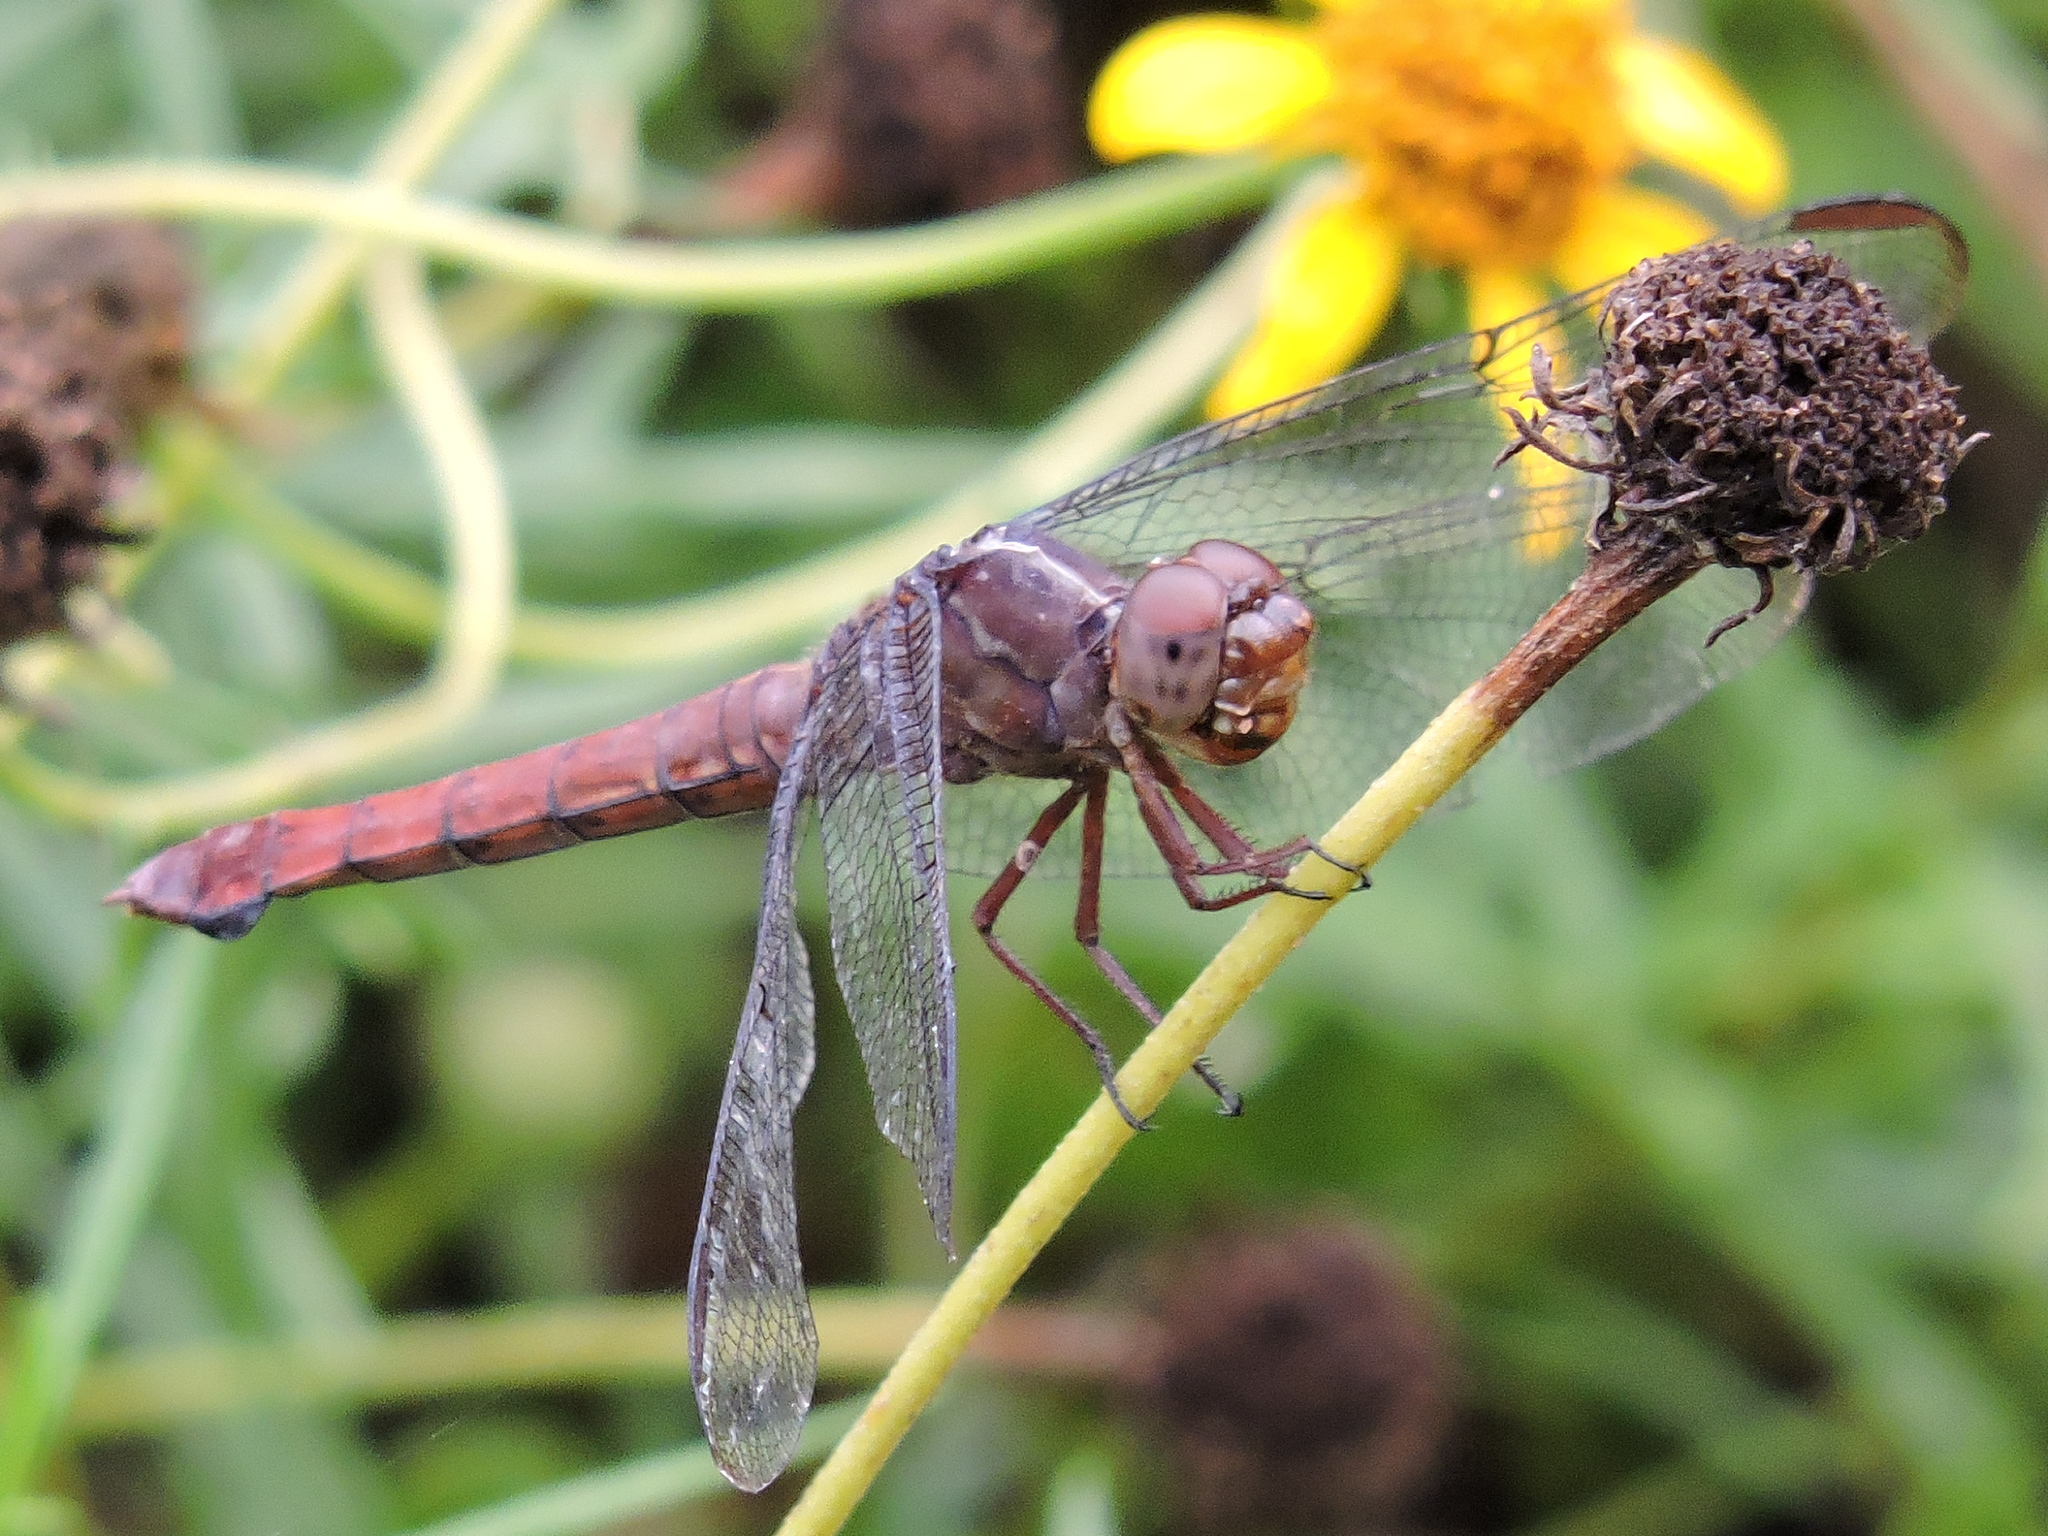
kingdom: Animalia
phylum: Arthropoda
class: Insecta
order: Odonata
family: Libellulidae
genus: Orthemis
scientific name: Orthemis ferruginea
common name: Roseate skimmer
